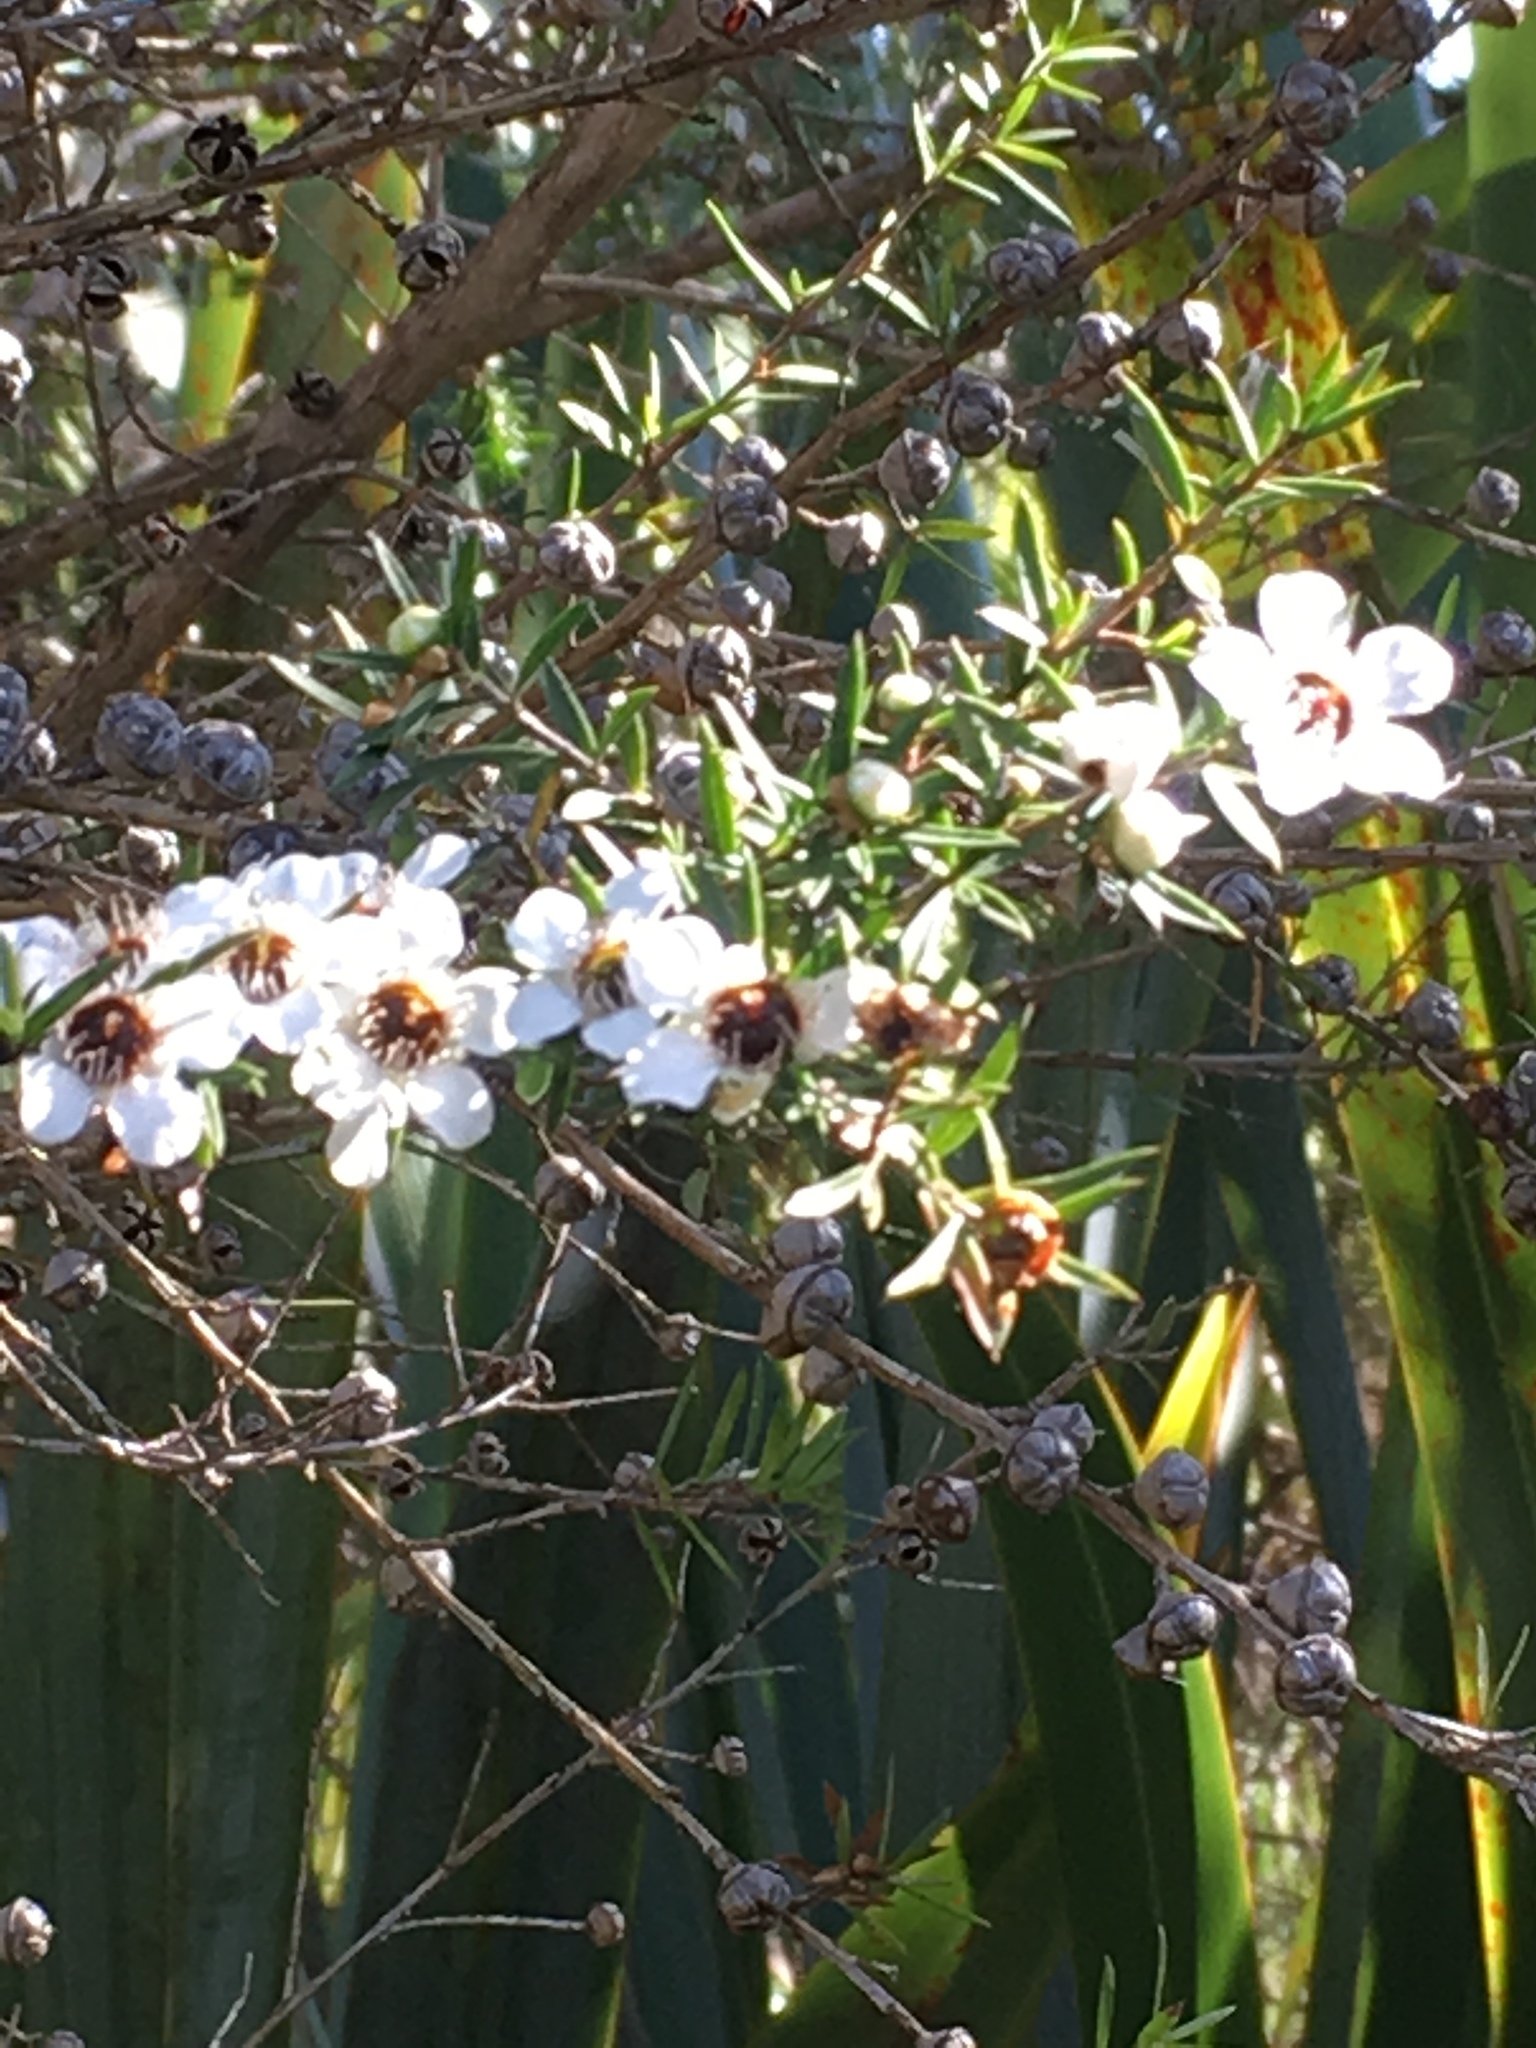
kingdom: Plantae
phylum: Tracheophyta
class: Magnoliopsida
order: Myrtales
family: Myrtaceae
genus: Leptospermum
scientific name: Leptospermum scoparium
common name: Broom tea-tree
